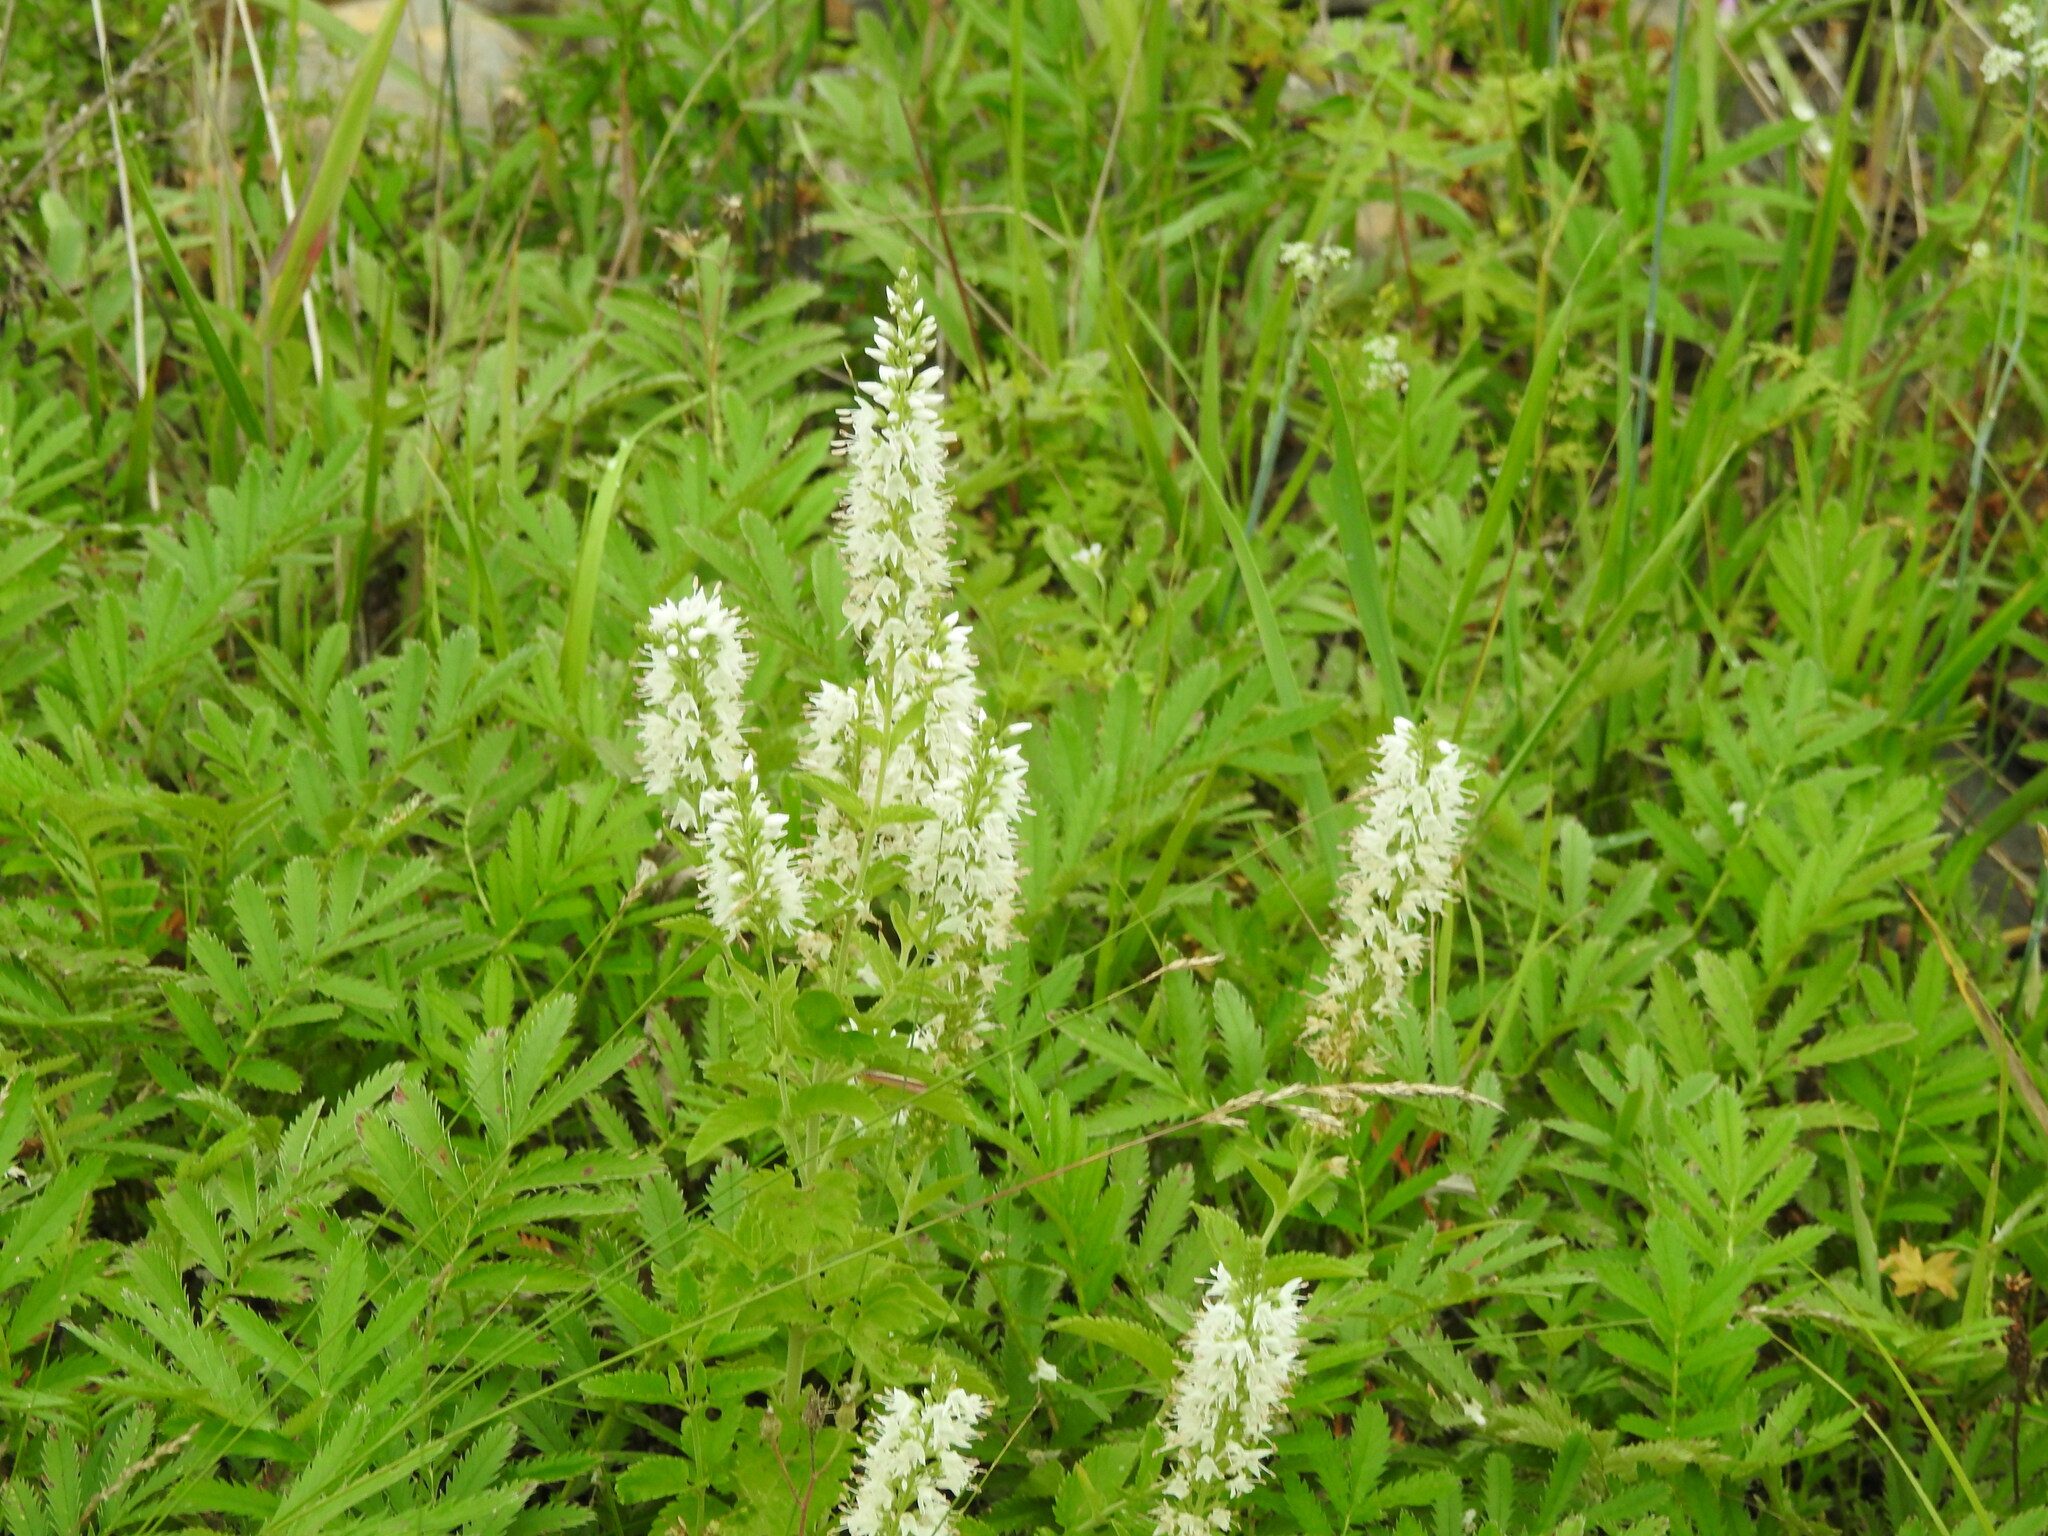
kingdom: Plantae
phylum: Tracheophyta
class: Magnoliopsida
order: Lamiales
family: Plantaginaceae
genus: Veronica
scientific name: Veronica daurica
